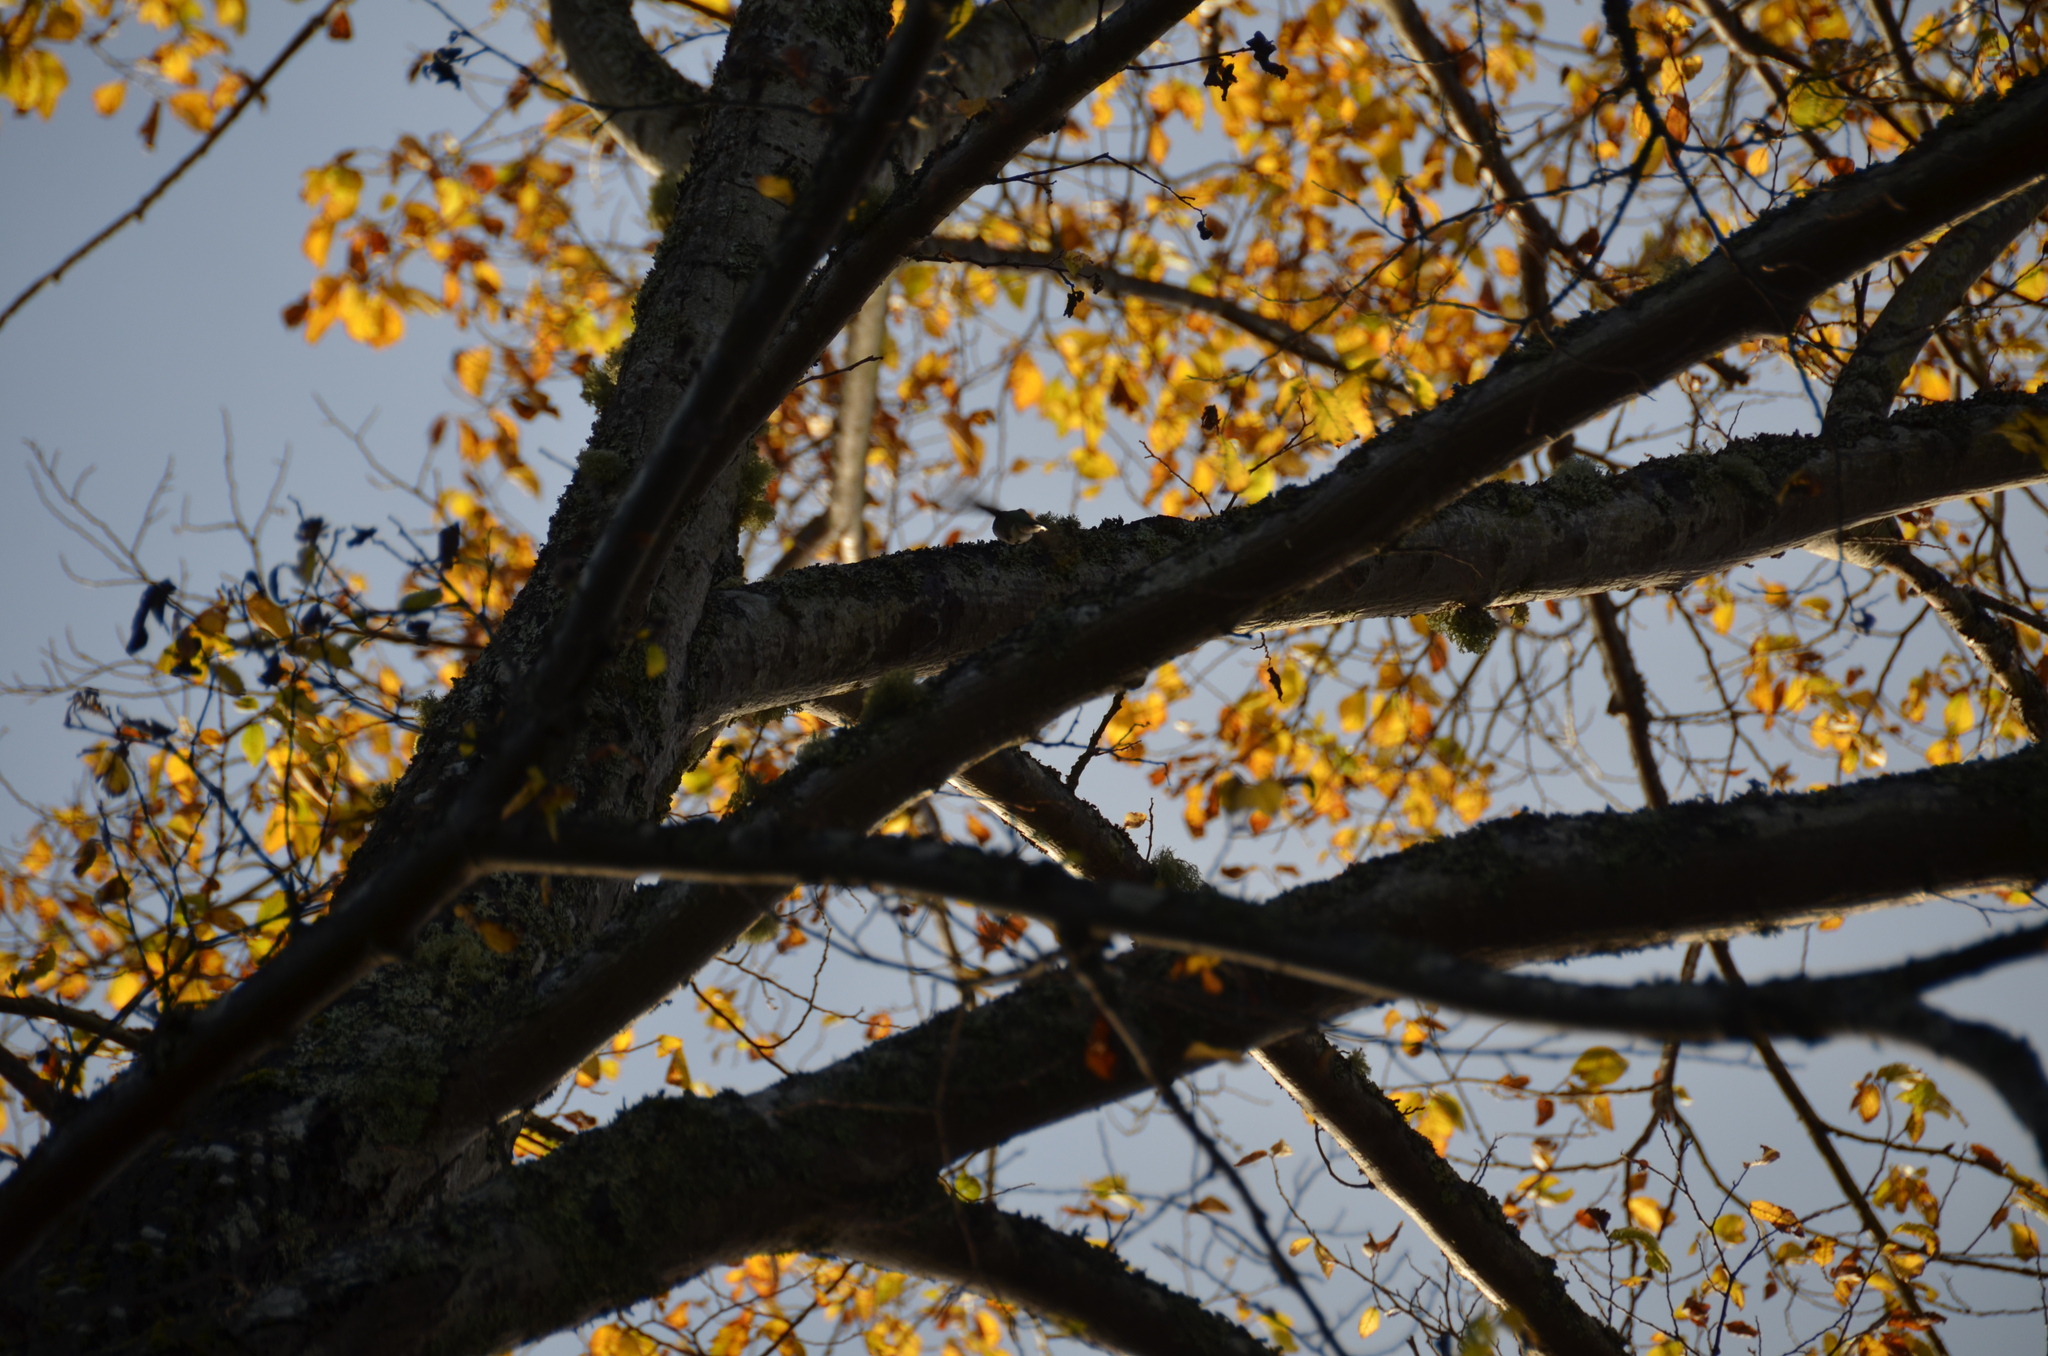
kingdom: Animalia
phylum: Chordata
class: Aves
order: Apodiformes
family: Trochilidae
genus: Calypte
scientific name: Calypte anna
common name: Anna's hummingbird
